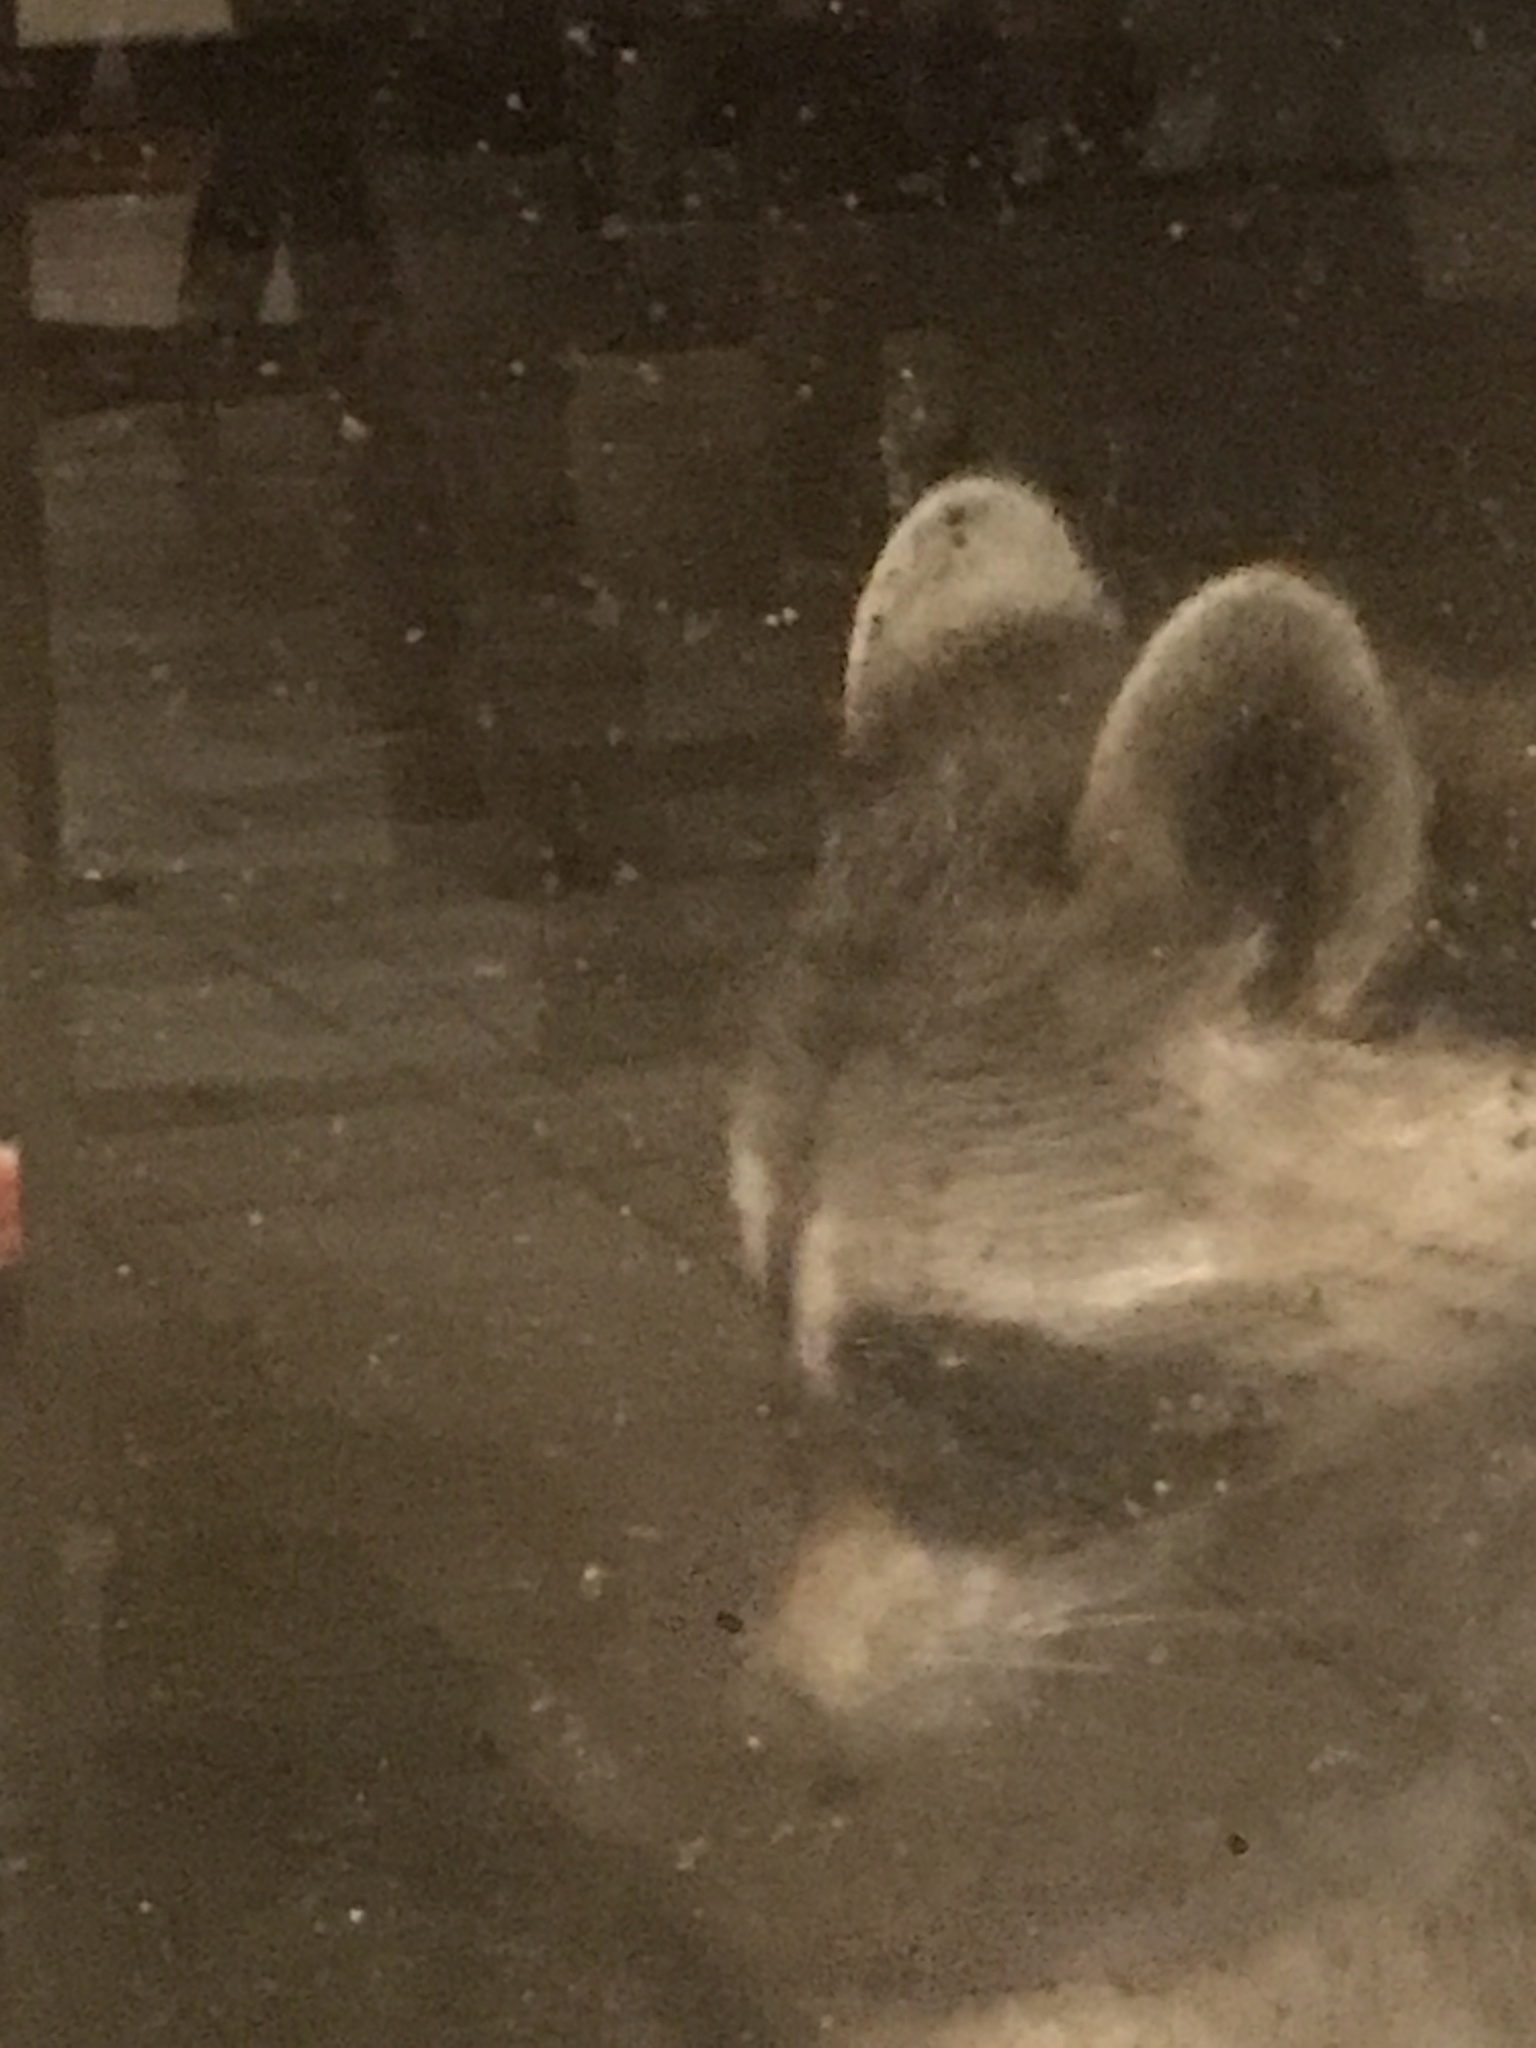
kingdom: Animalia
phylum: Chordata
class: Mammalia
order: Carnivora
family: Procyonidae
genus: Procyon
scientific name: Procyon lotor
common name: Raccoon
